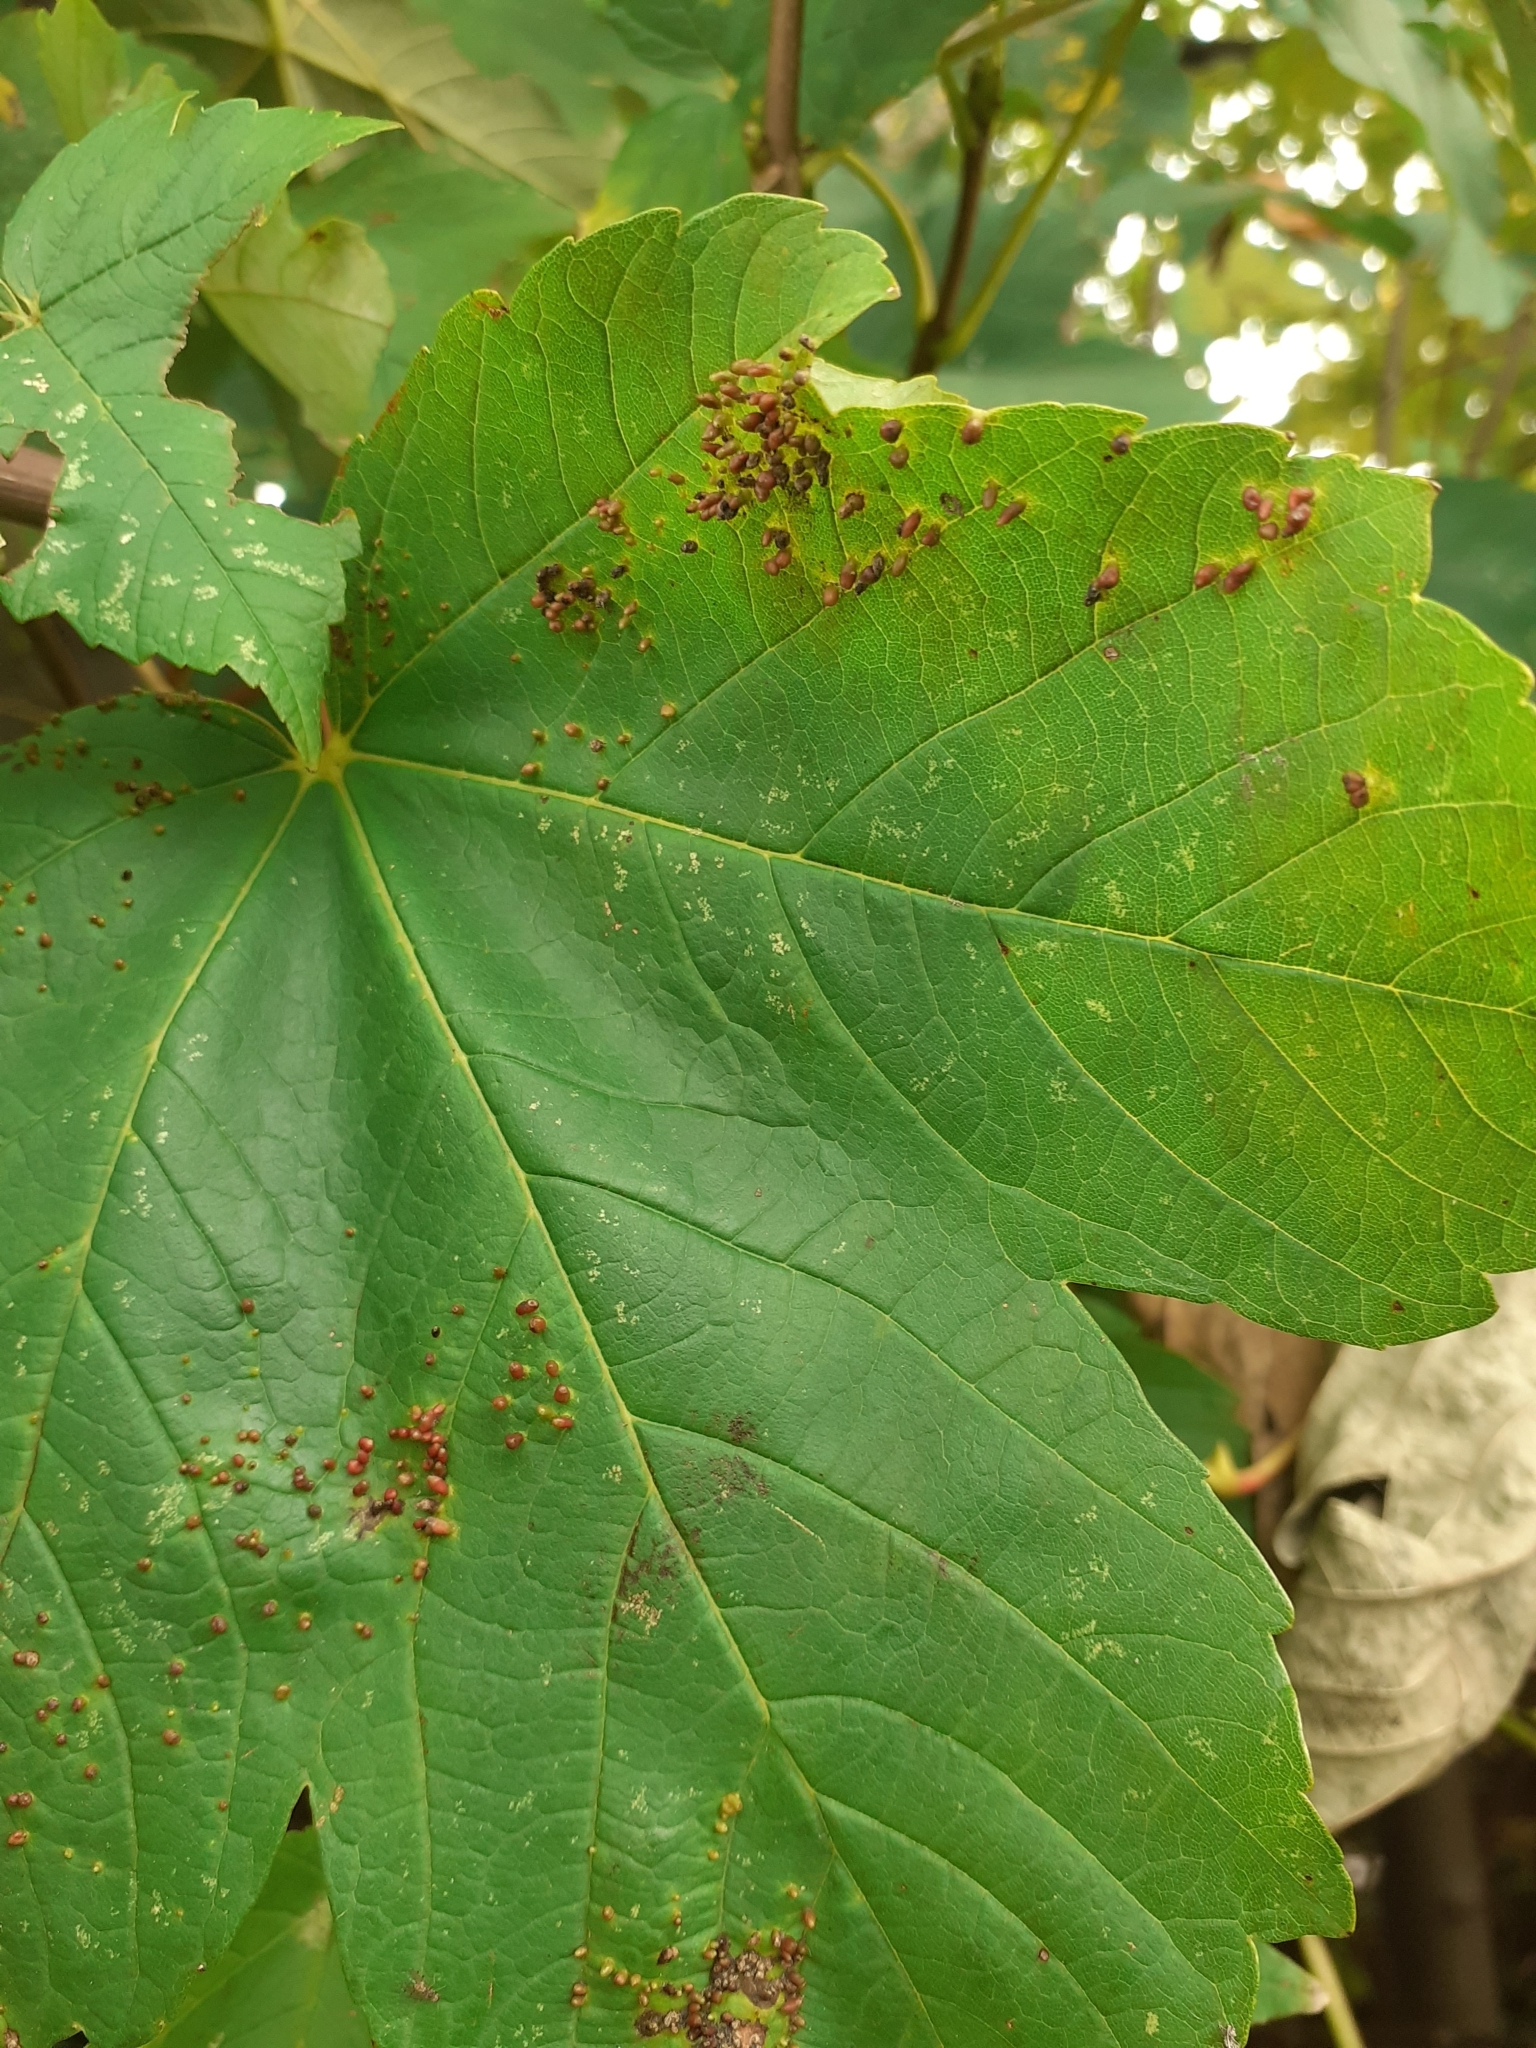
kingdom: Animalia
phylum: Arthropoda
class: Arachnida
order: Trombidiformes
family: Eriophyidae
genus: Aceria
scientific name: Aceria cephaloneus
